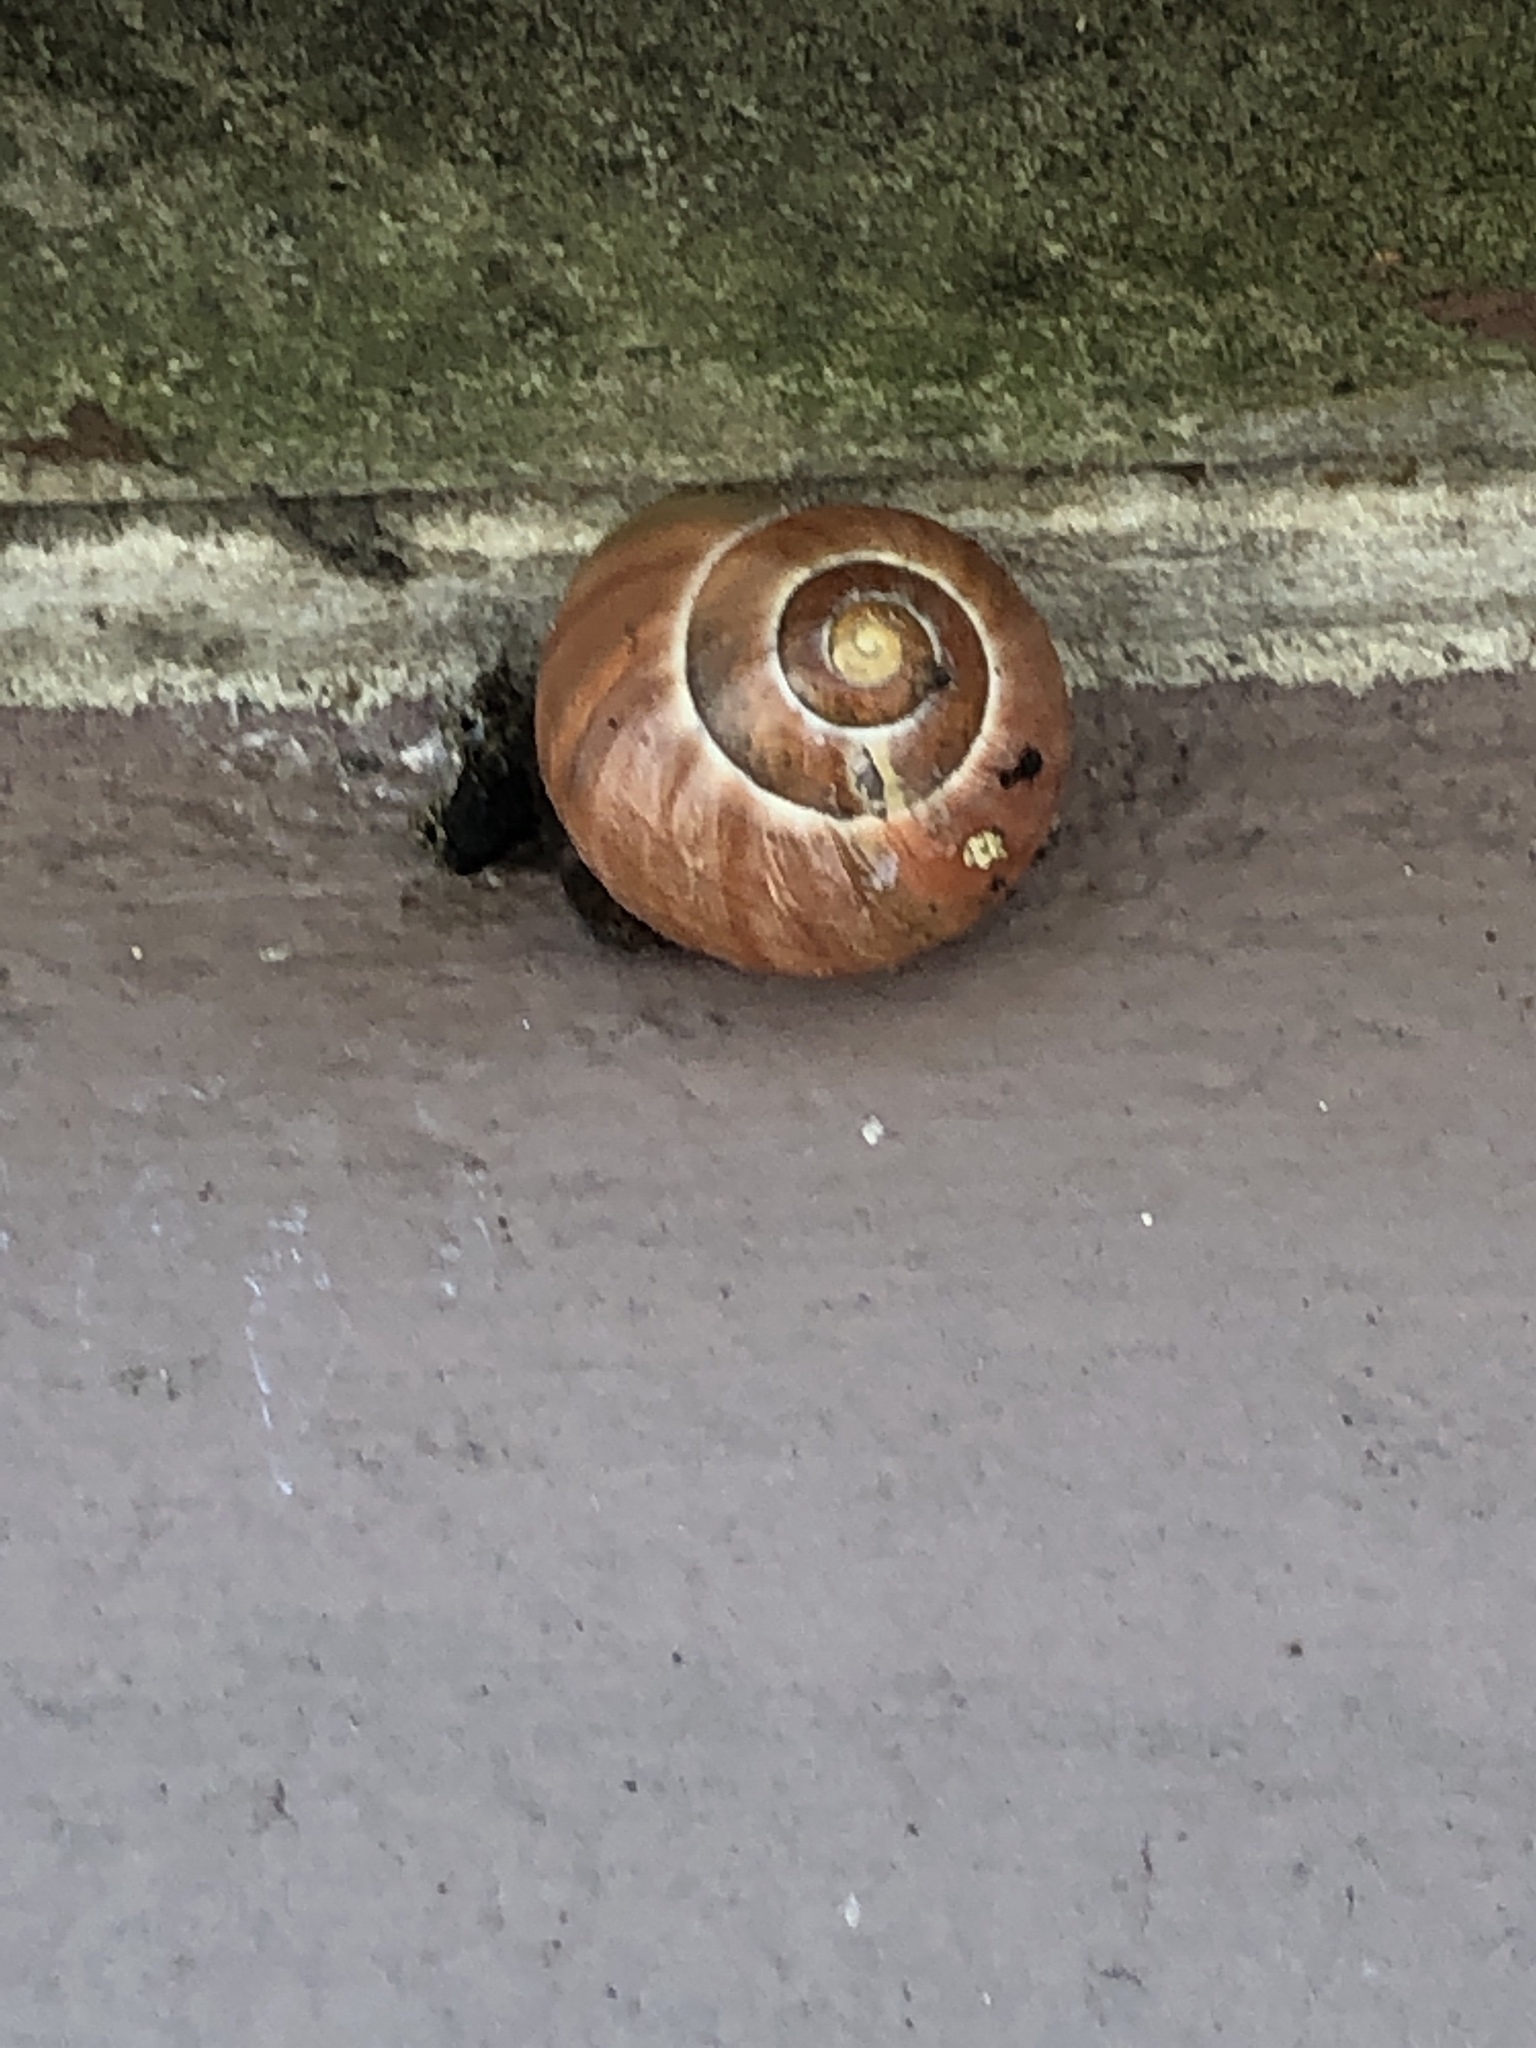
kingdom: Animalia
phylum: Mollusca
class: Gastropoda
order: Stylommatophora
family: Helicidae
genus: Cepaea
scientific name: Cepaea
